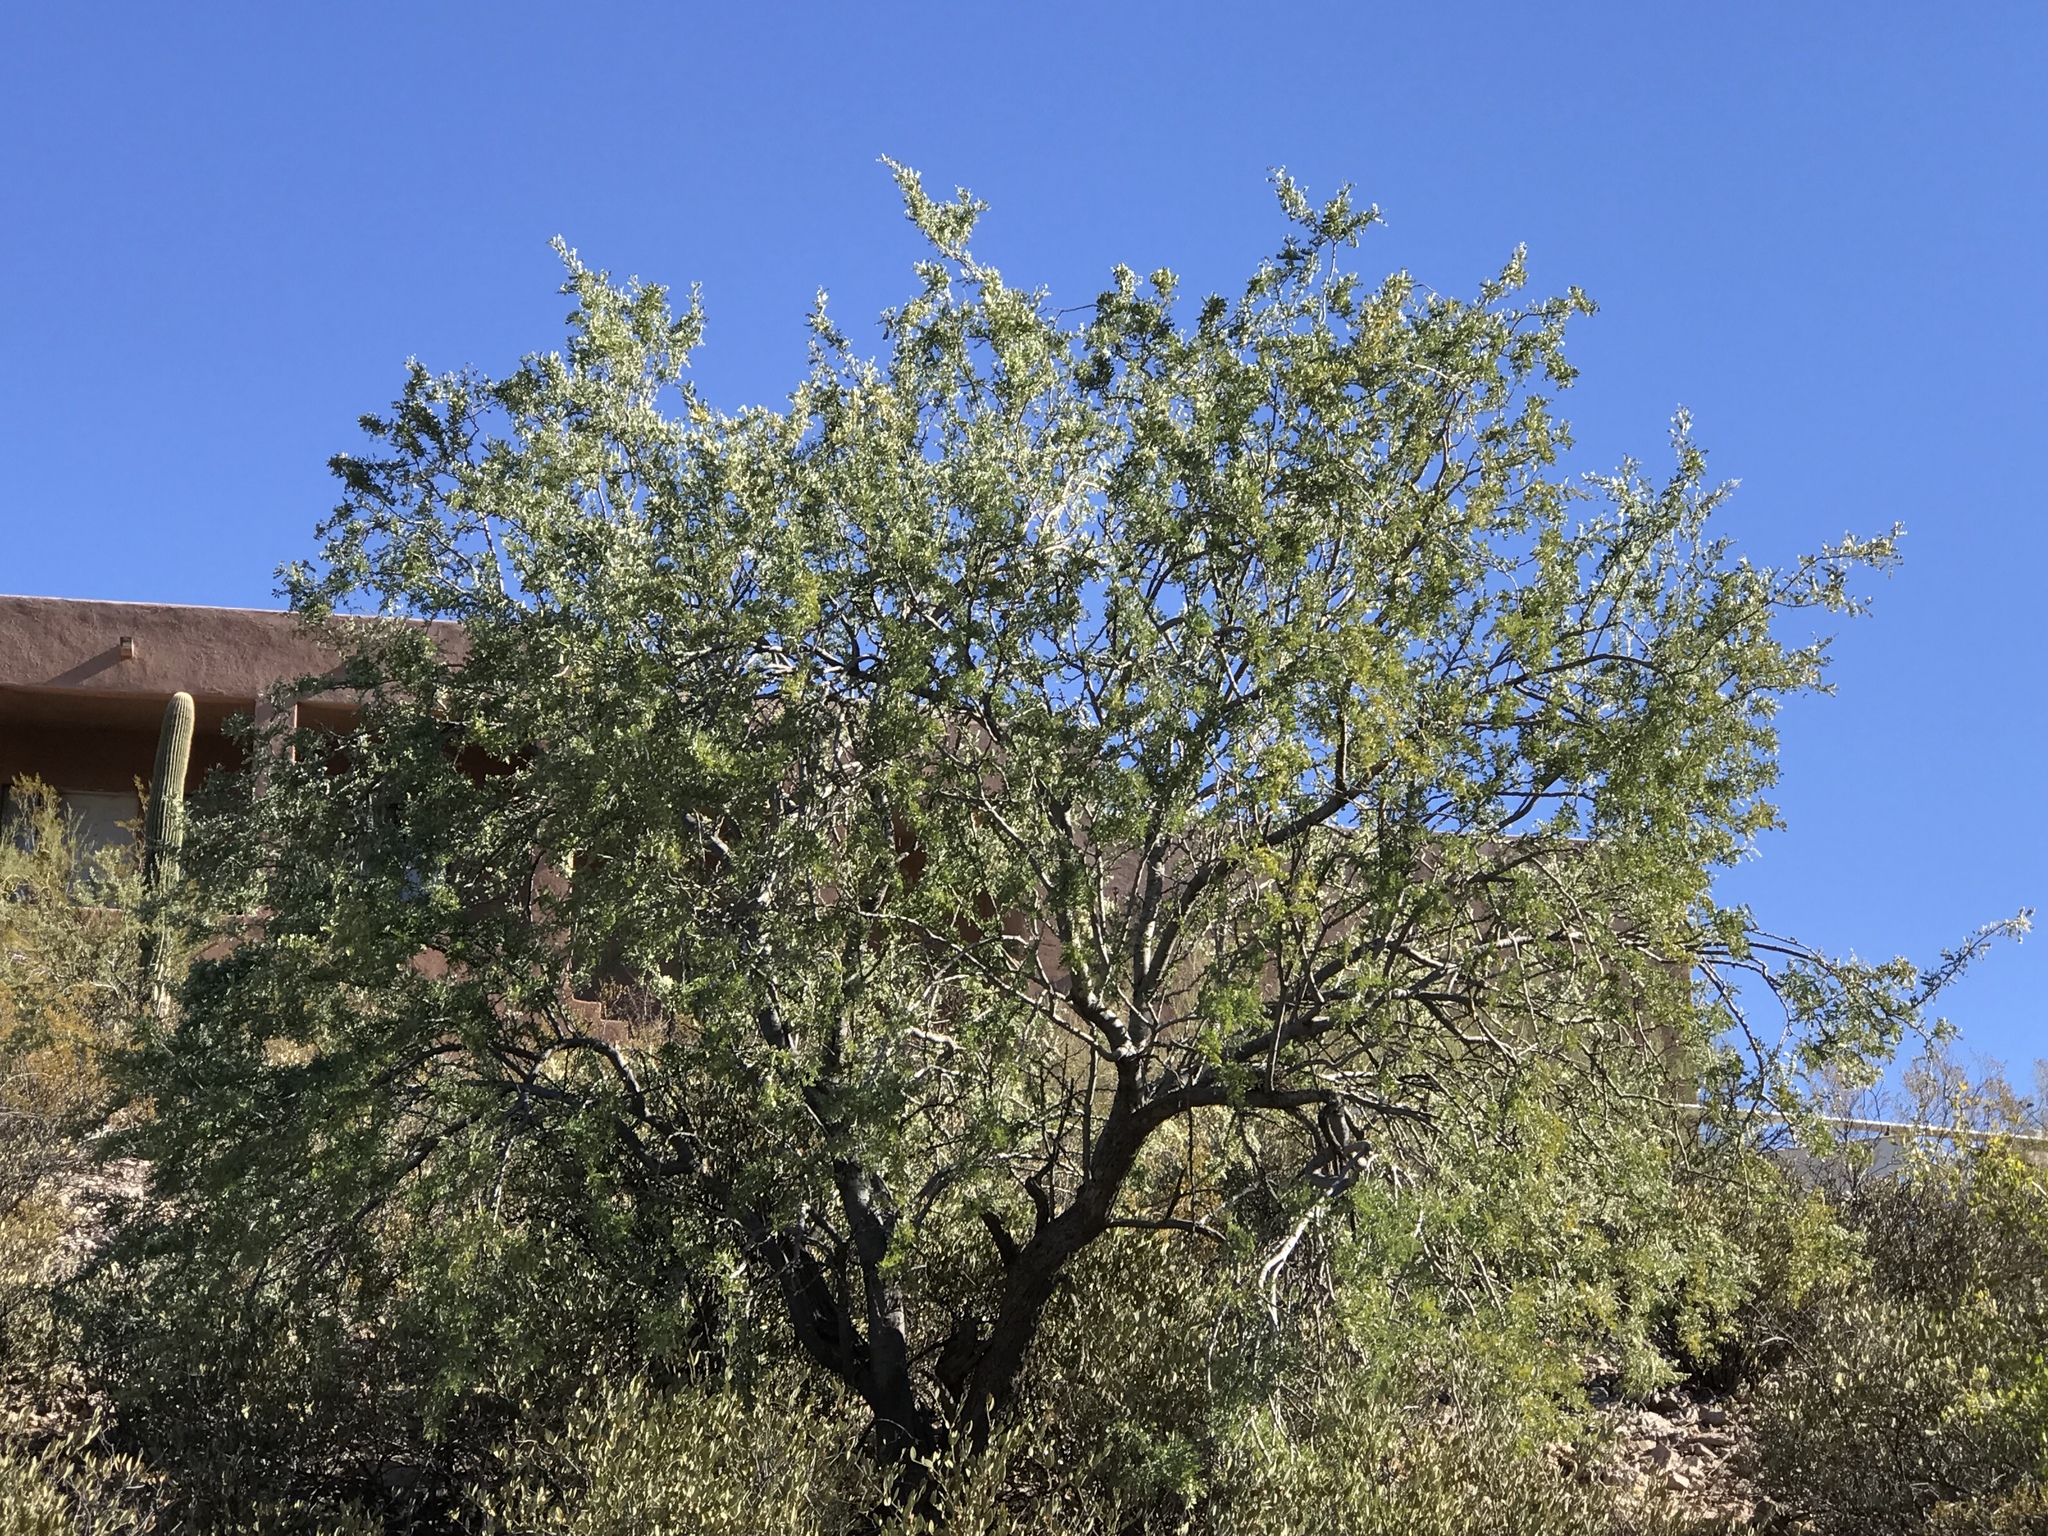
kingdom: Plantae
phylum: Tracheophyta
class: Magnoliopsida
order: Fabales
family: Fabaceae
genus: Olneya
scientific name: Olneya tesota
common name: Desert ironwood
